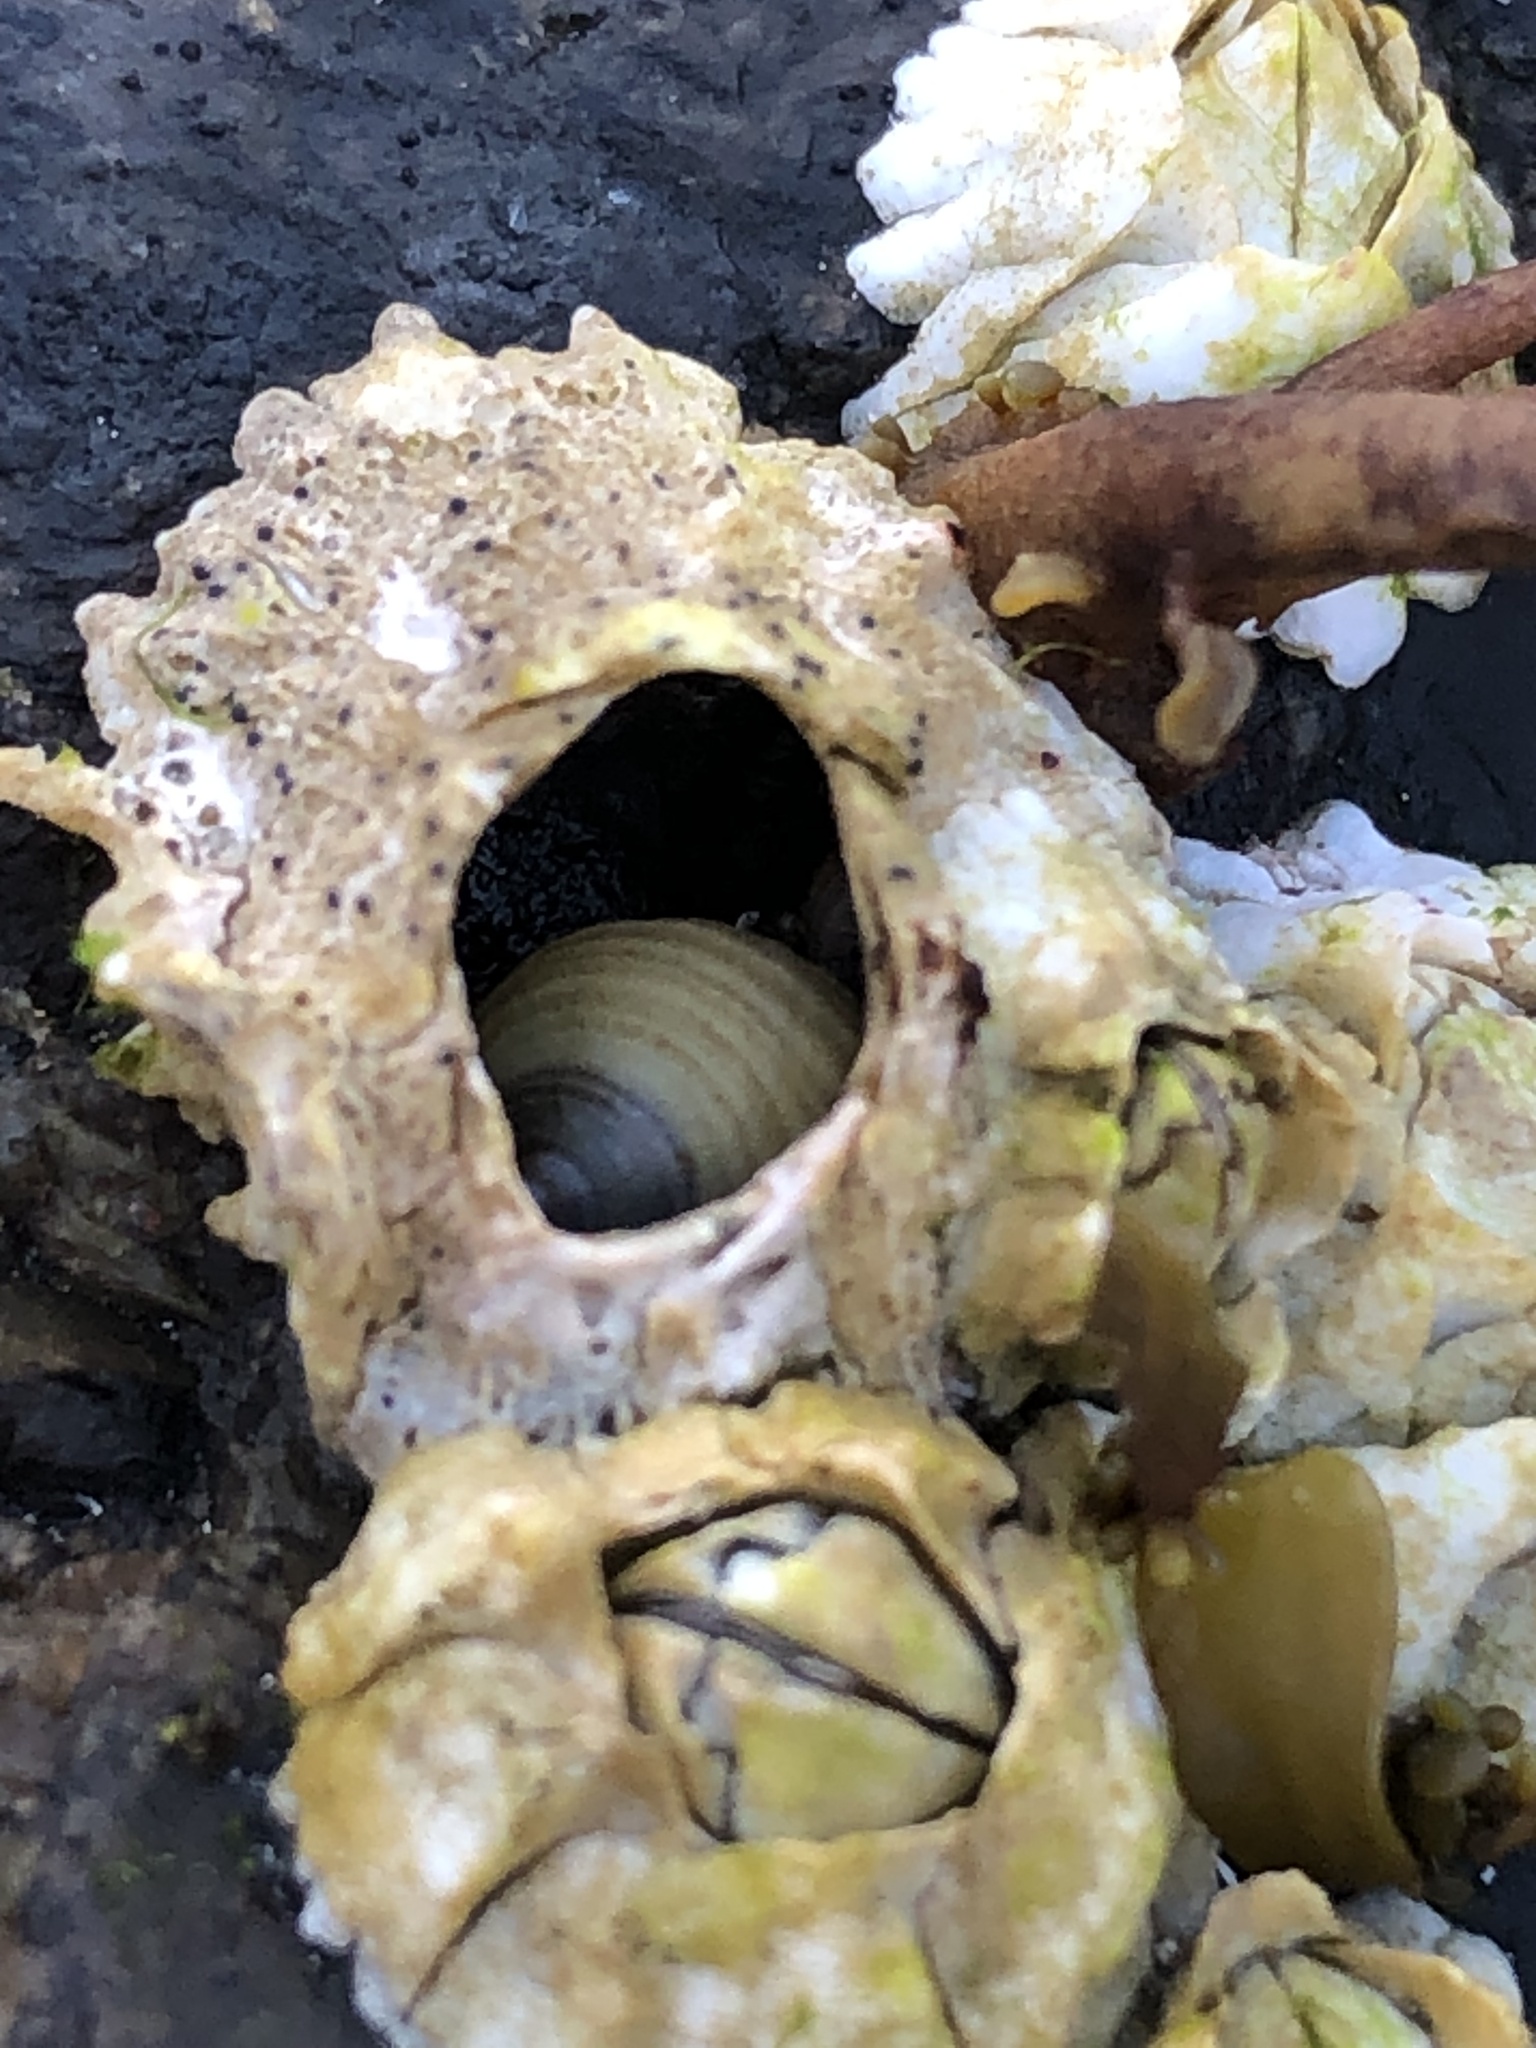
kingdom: Animalia
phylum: Mollusca
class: Gastropoda
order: Littorinimorpha
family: Littorinidae
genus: Littorina
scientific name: Littorina saxatilis
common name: Black-lined periwinkle
